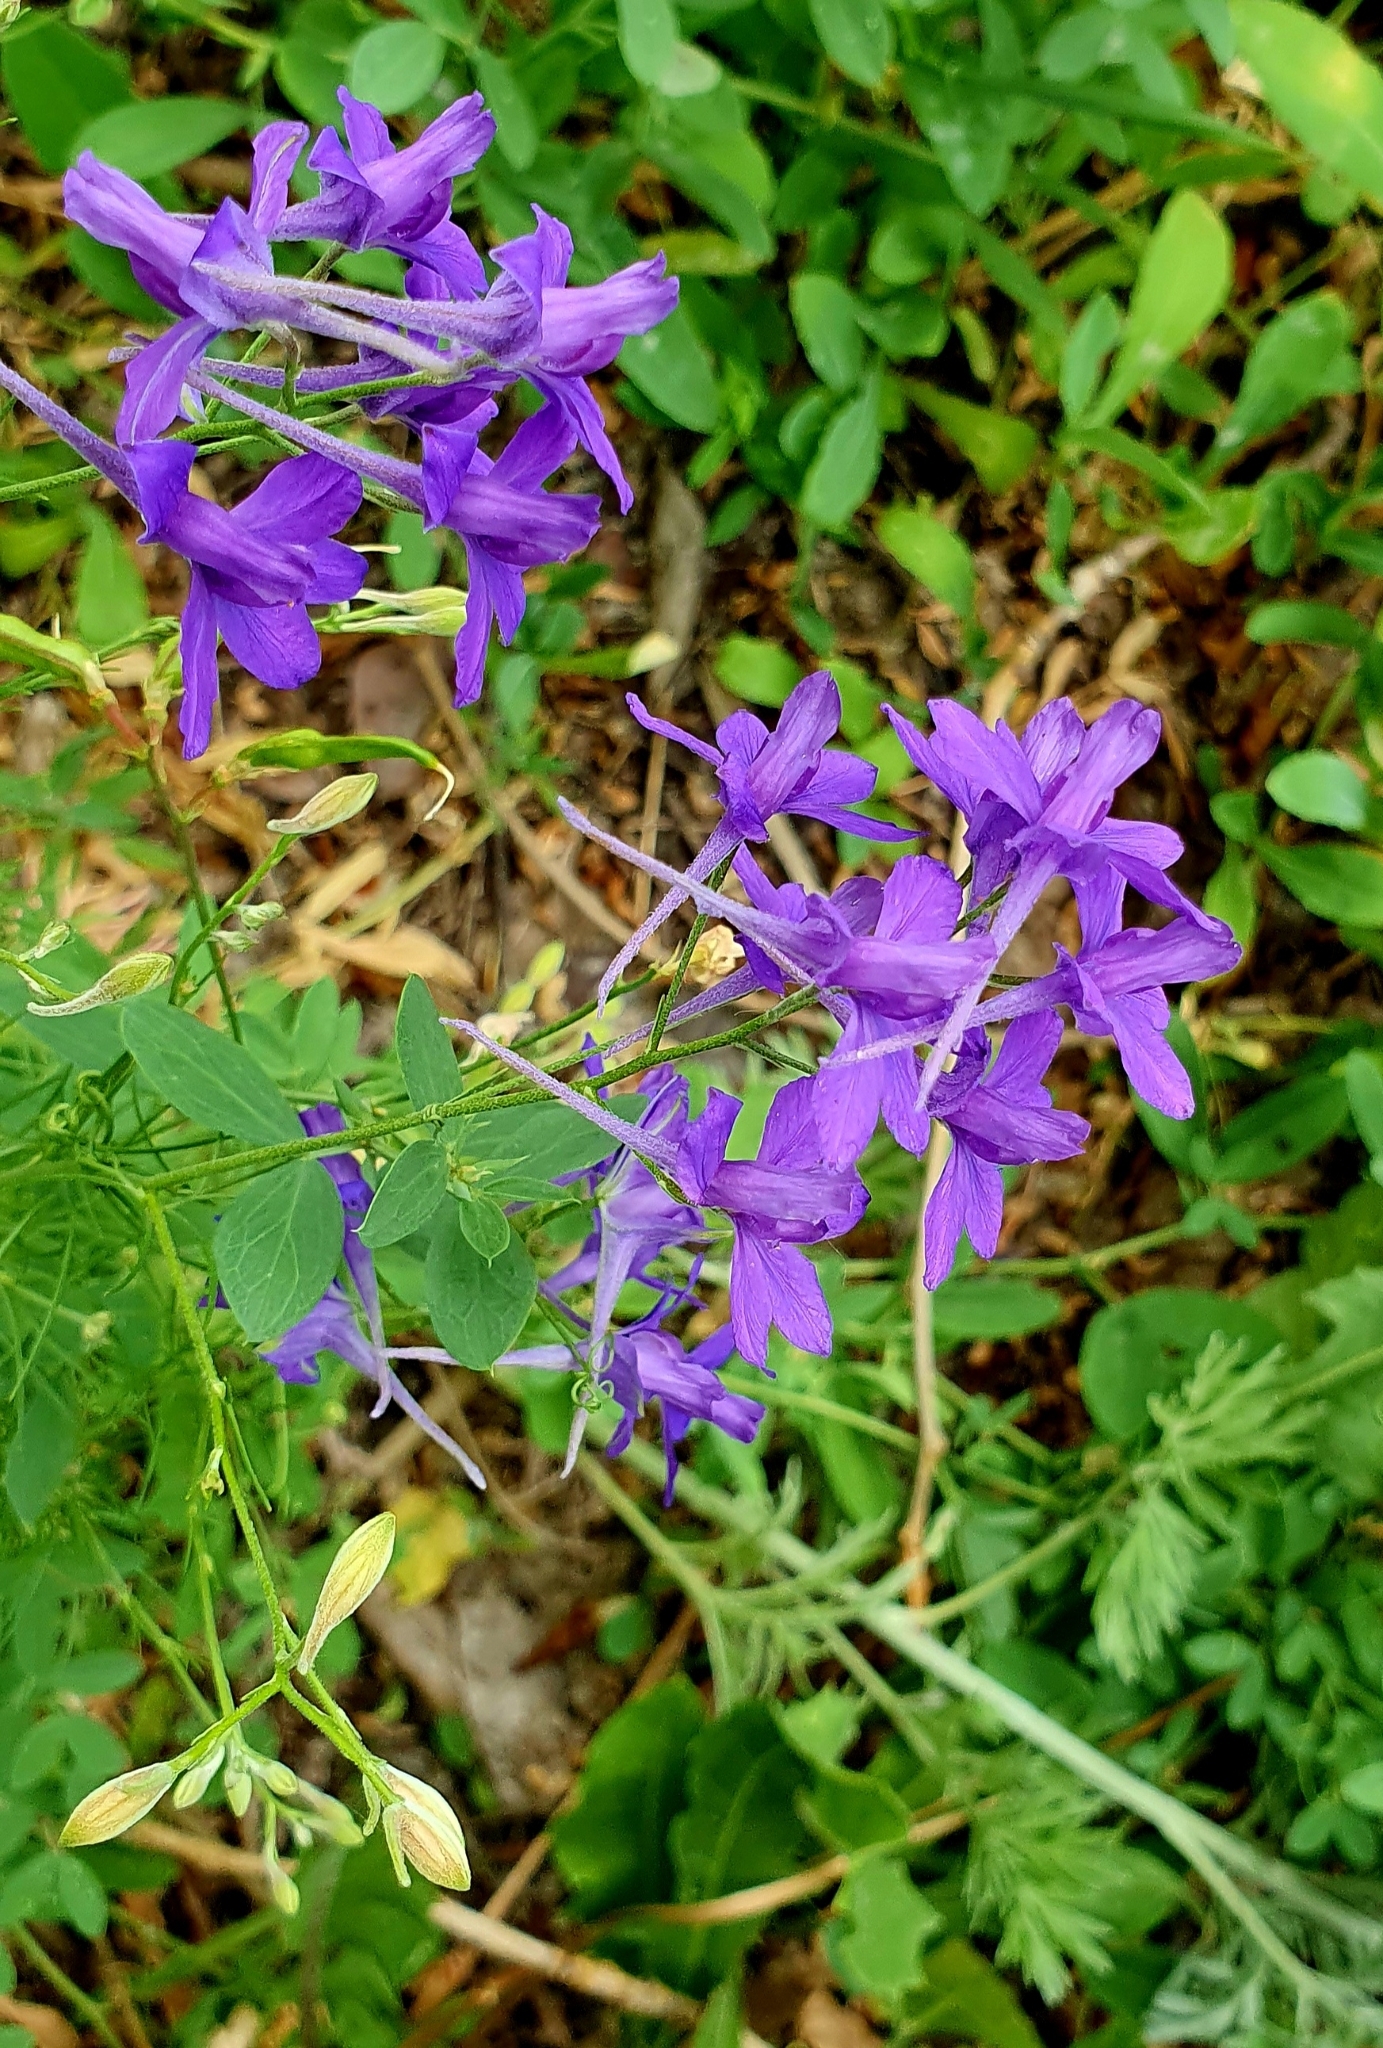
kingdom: Plantae
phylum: Tracheophyta
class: Magnoliopsida
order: Ranunculales
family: Ranunculaceae
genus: Delphinium
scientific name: Delphinium consolida
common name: Branching larkspur
